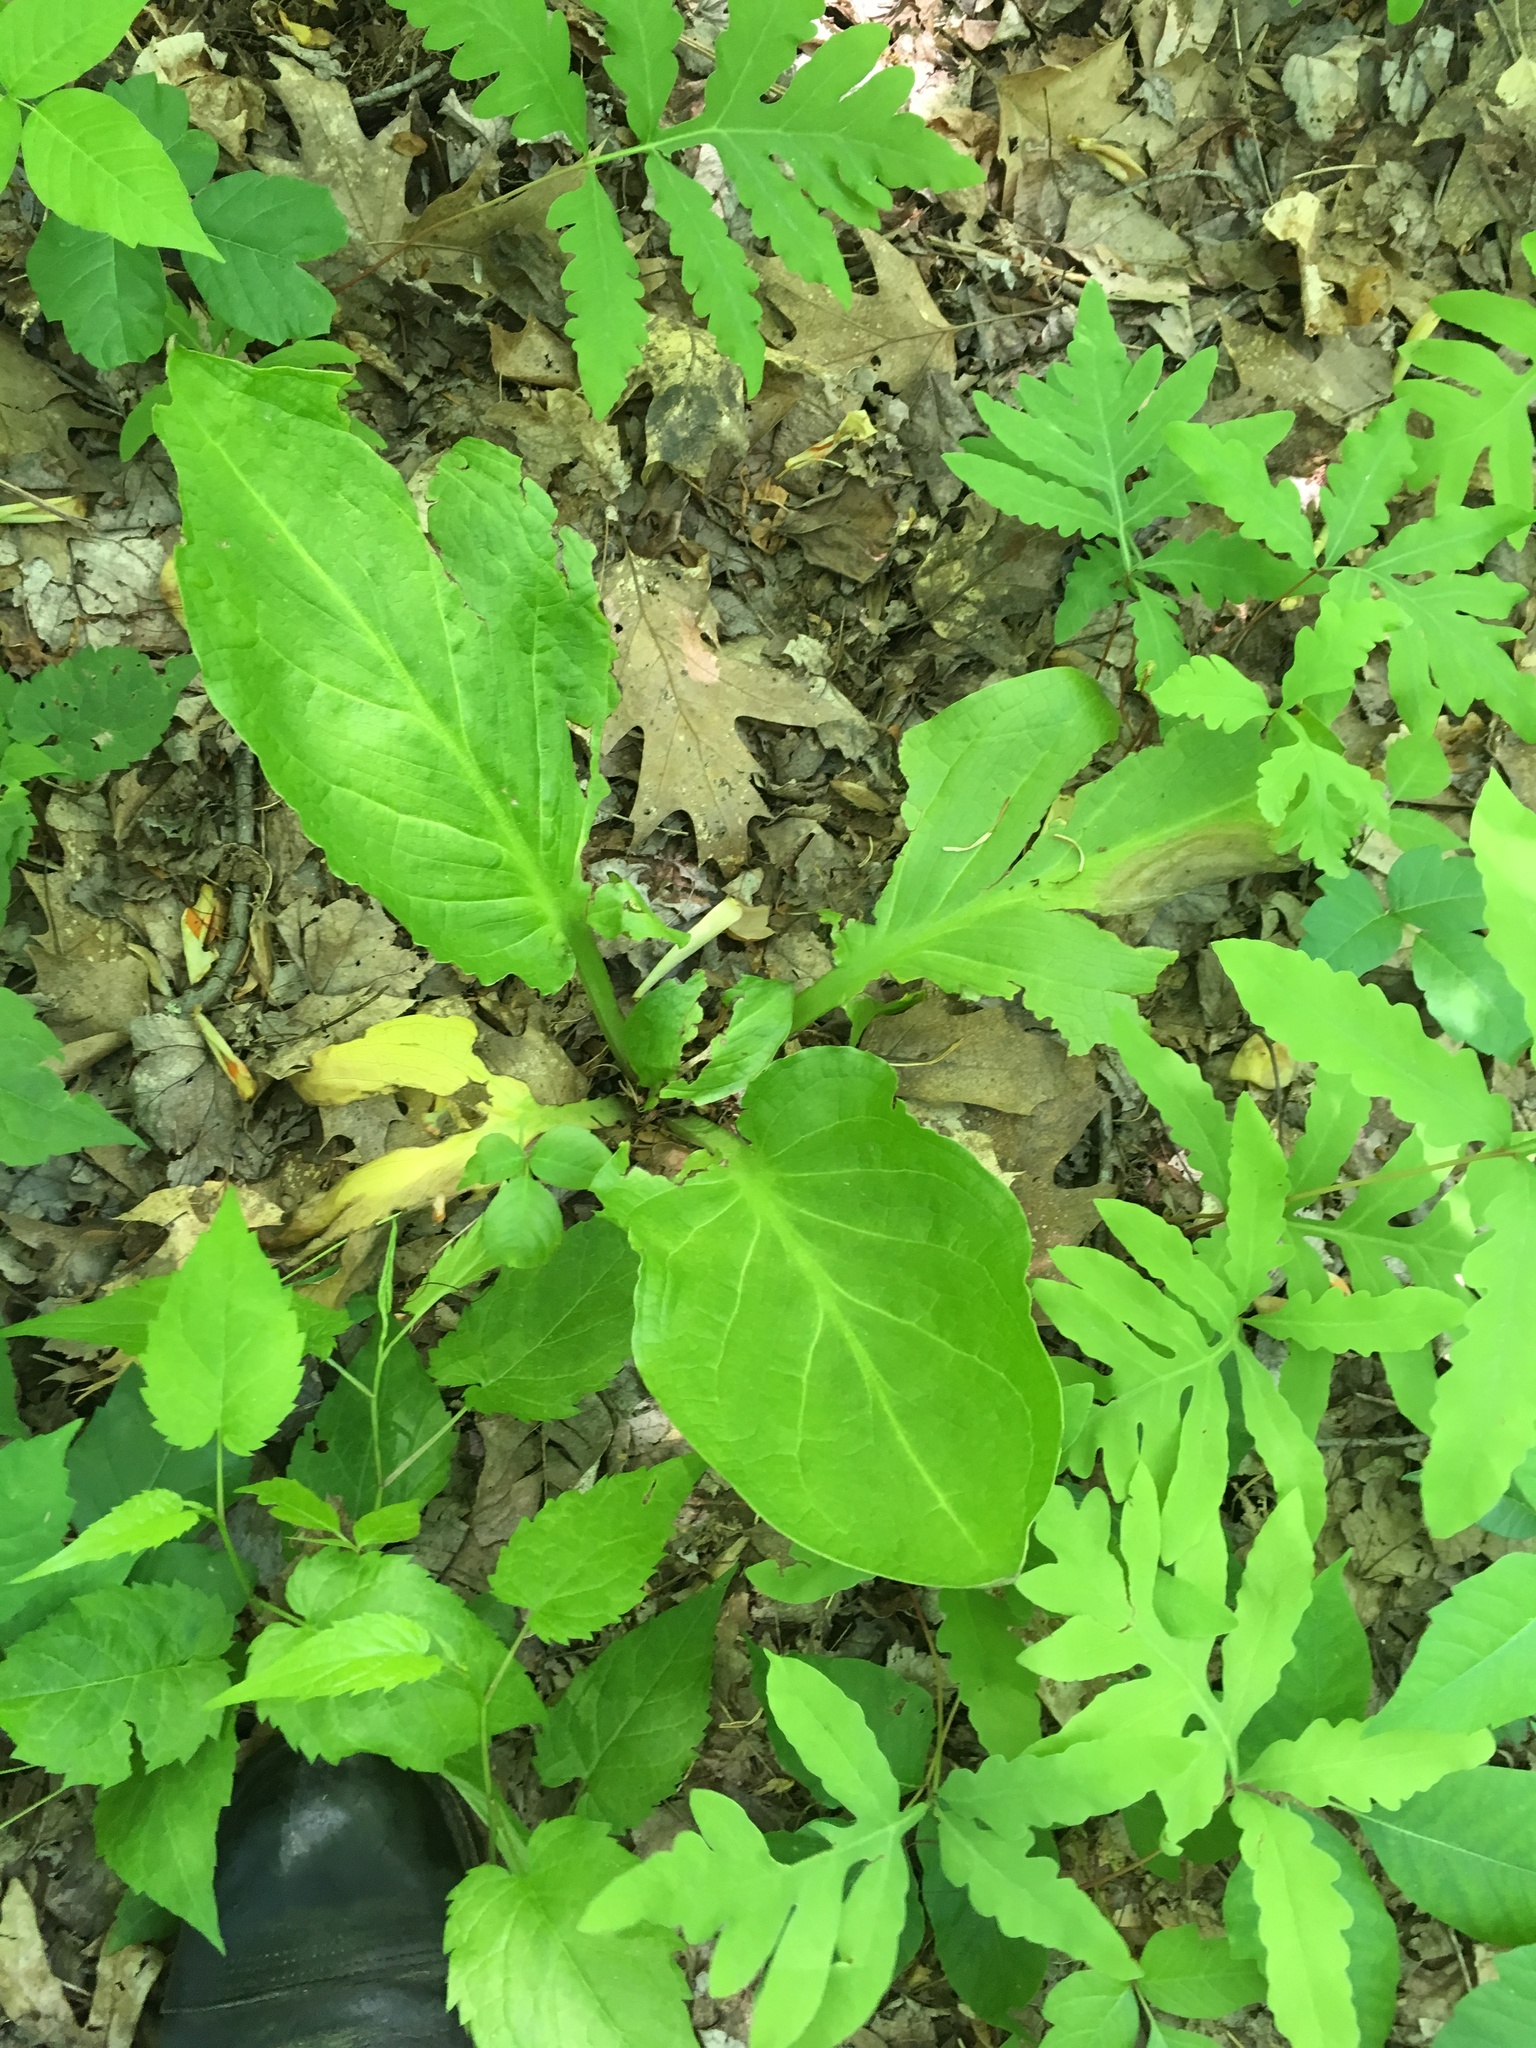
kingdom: Plantae
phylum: Tracheophyta
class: Liliopsida
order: Alismatales
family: Araceae
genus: Symplocarpus
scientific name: Symplocarpus foetidus
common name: Eastern skunk cabbage
